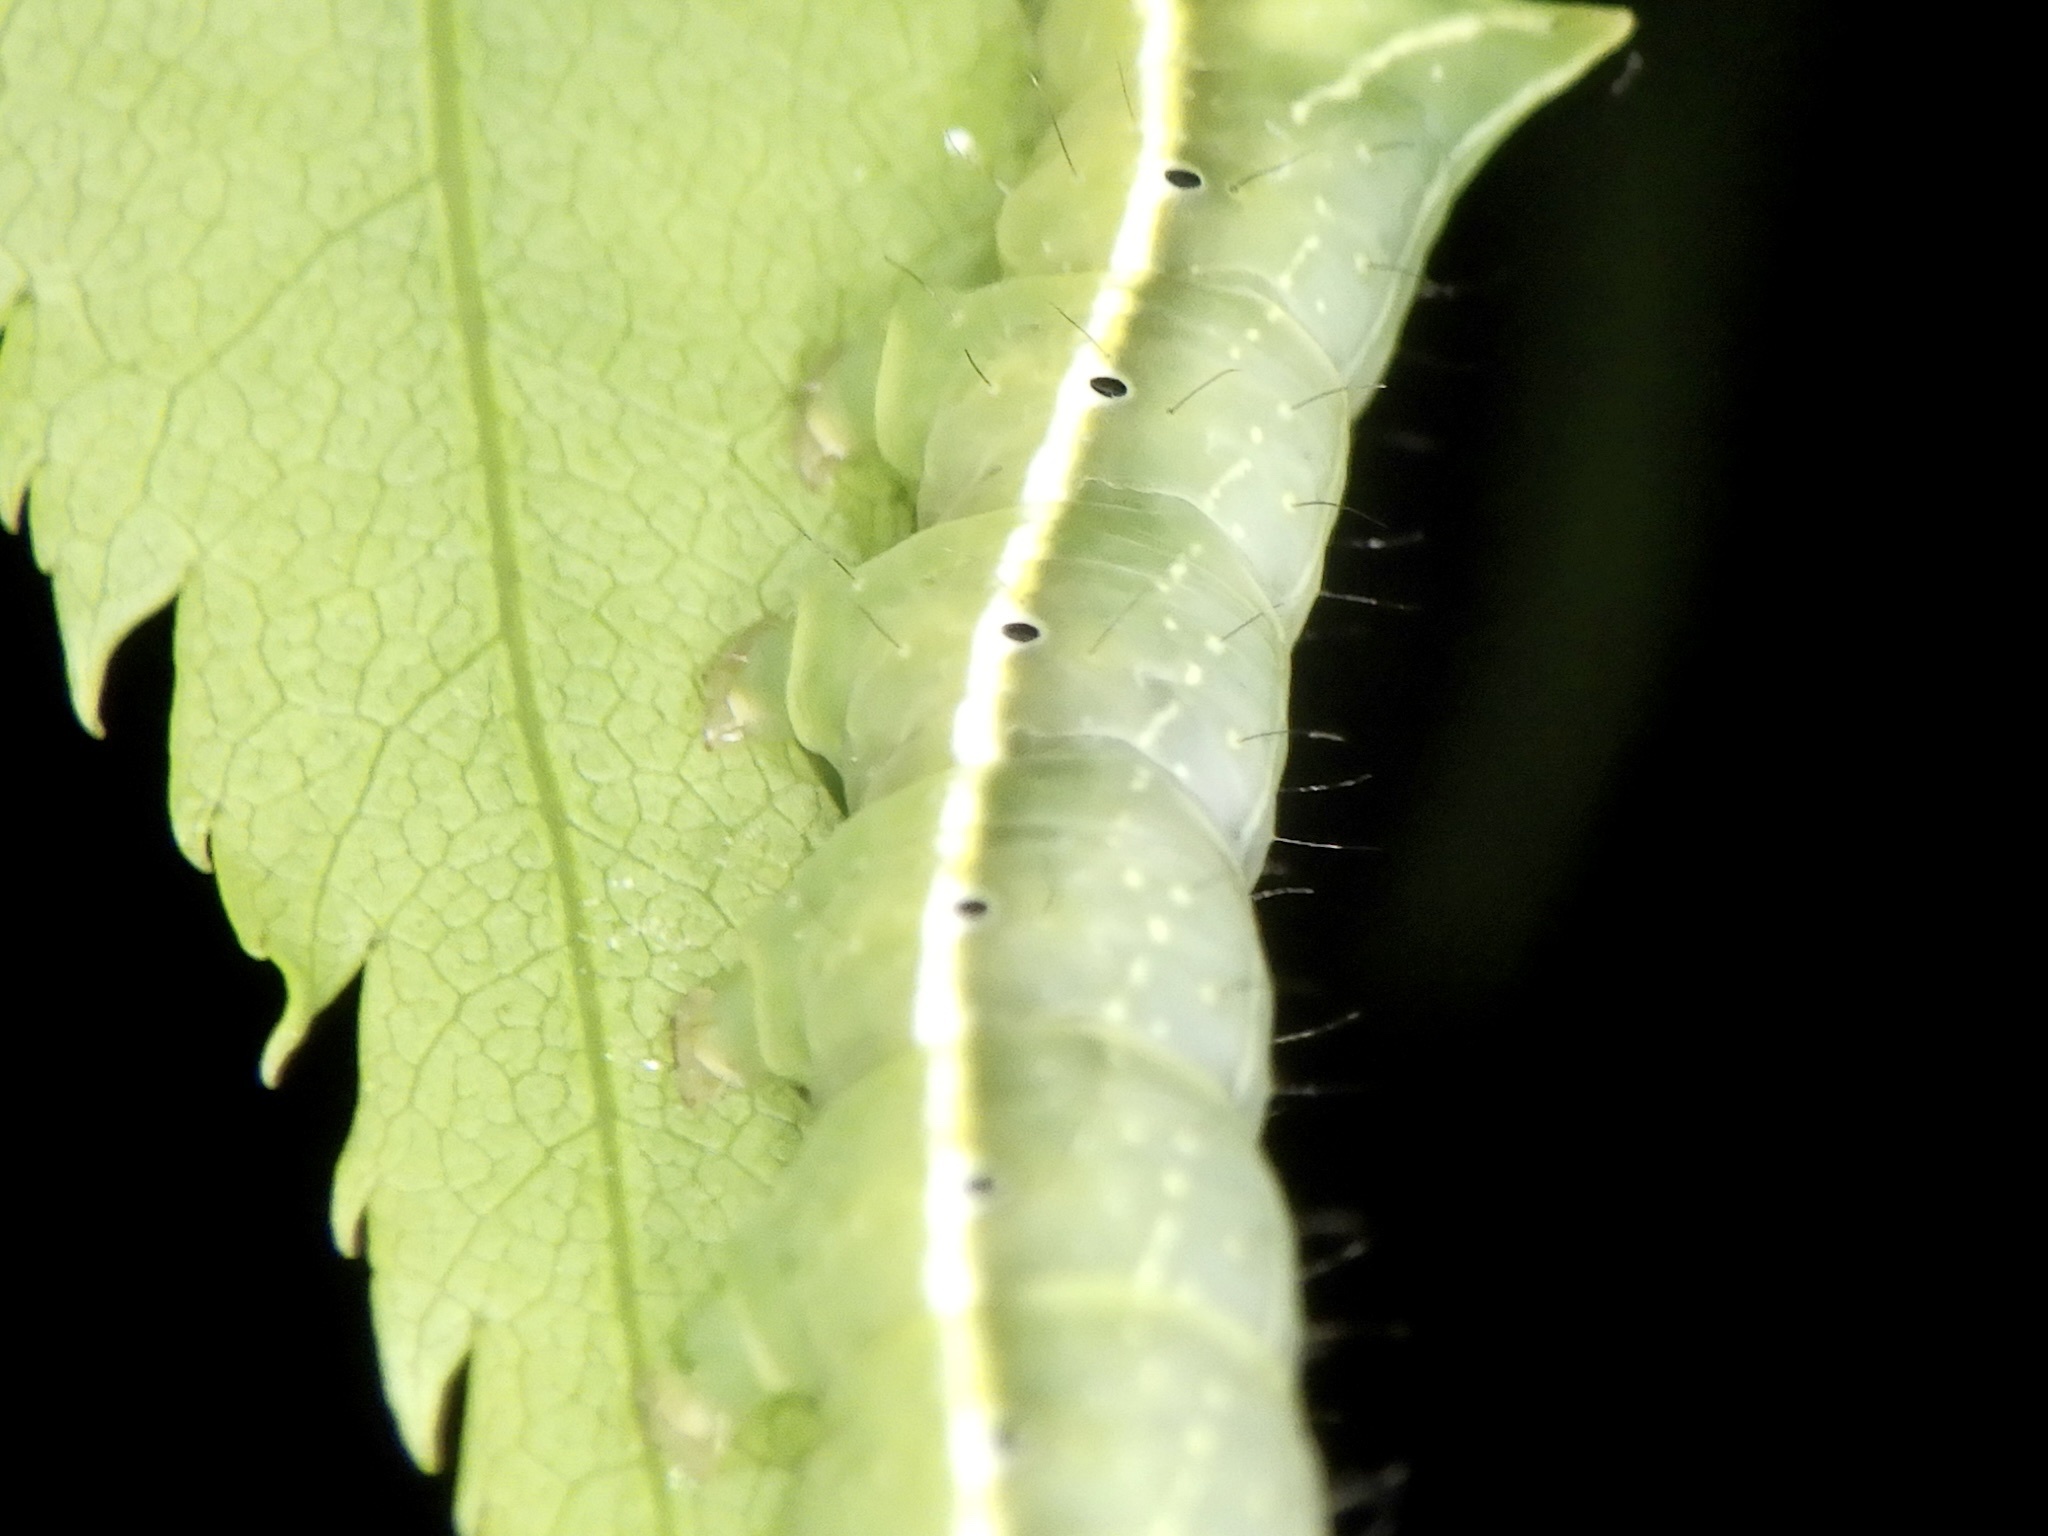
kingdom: Animalia
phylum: Arthropoda
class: Insecta
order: Lepidoptera
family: Noctuidae
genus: Amphipyra
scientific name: Amphipyra monolitha
